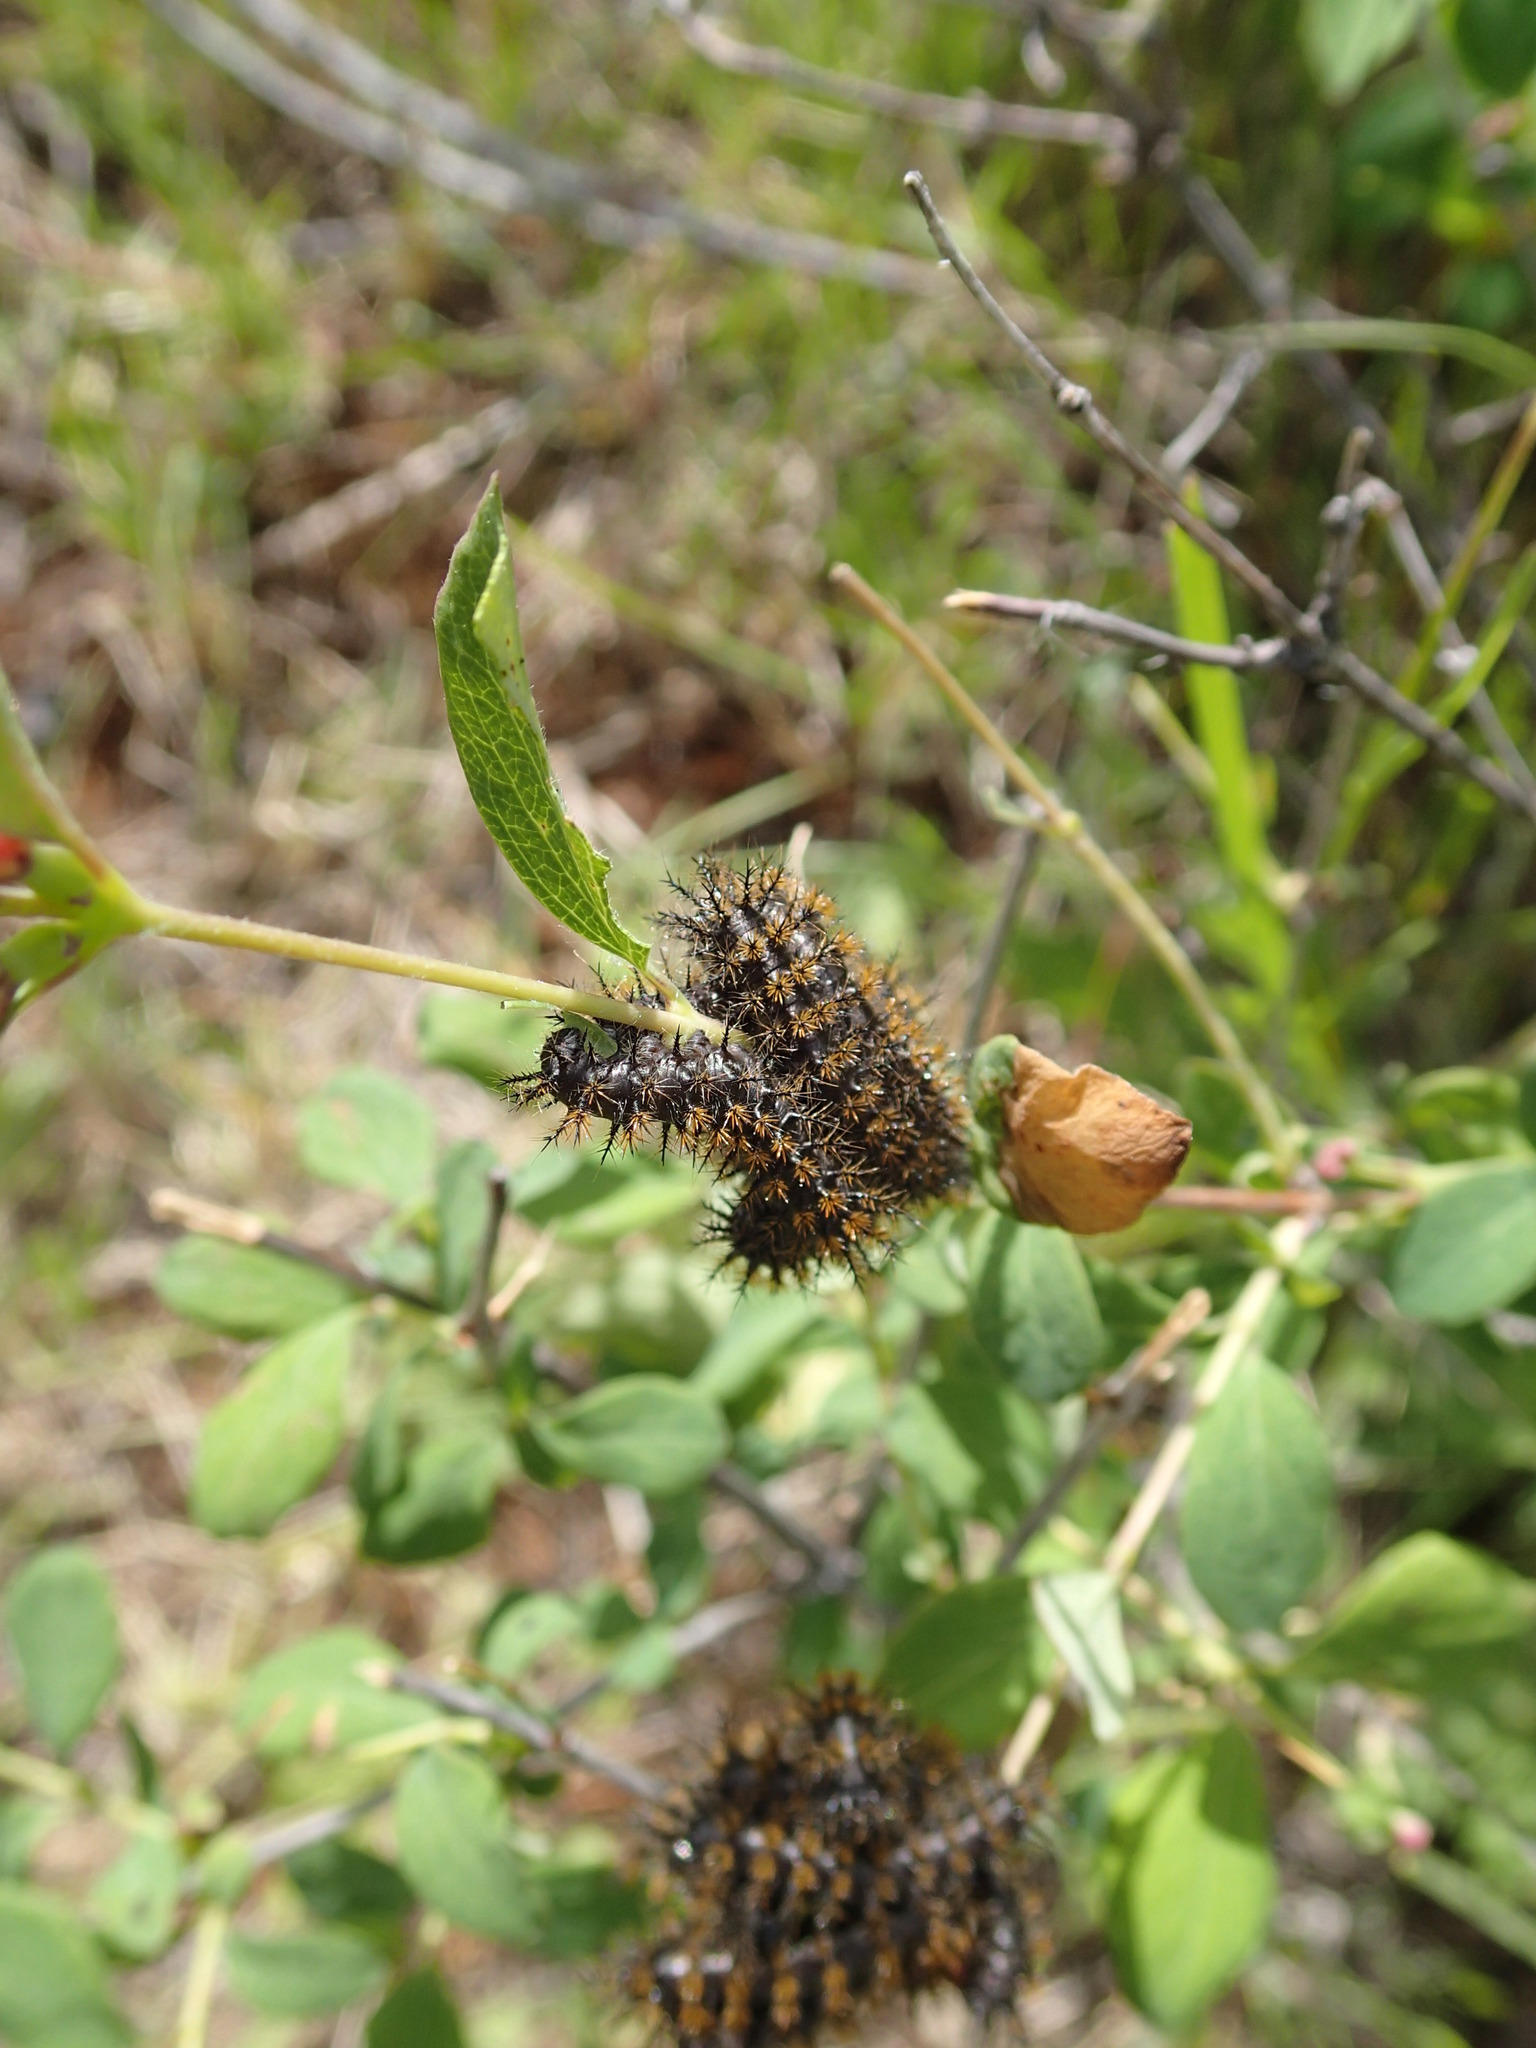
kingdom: Animalia
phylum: Arthropoda
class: Insecta
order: Lepidoptera
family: Saturniidae
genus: Hemileuca
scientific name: Hemileuca eglanterina
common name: Western sheepmoth
